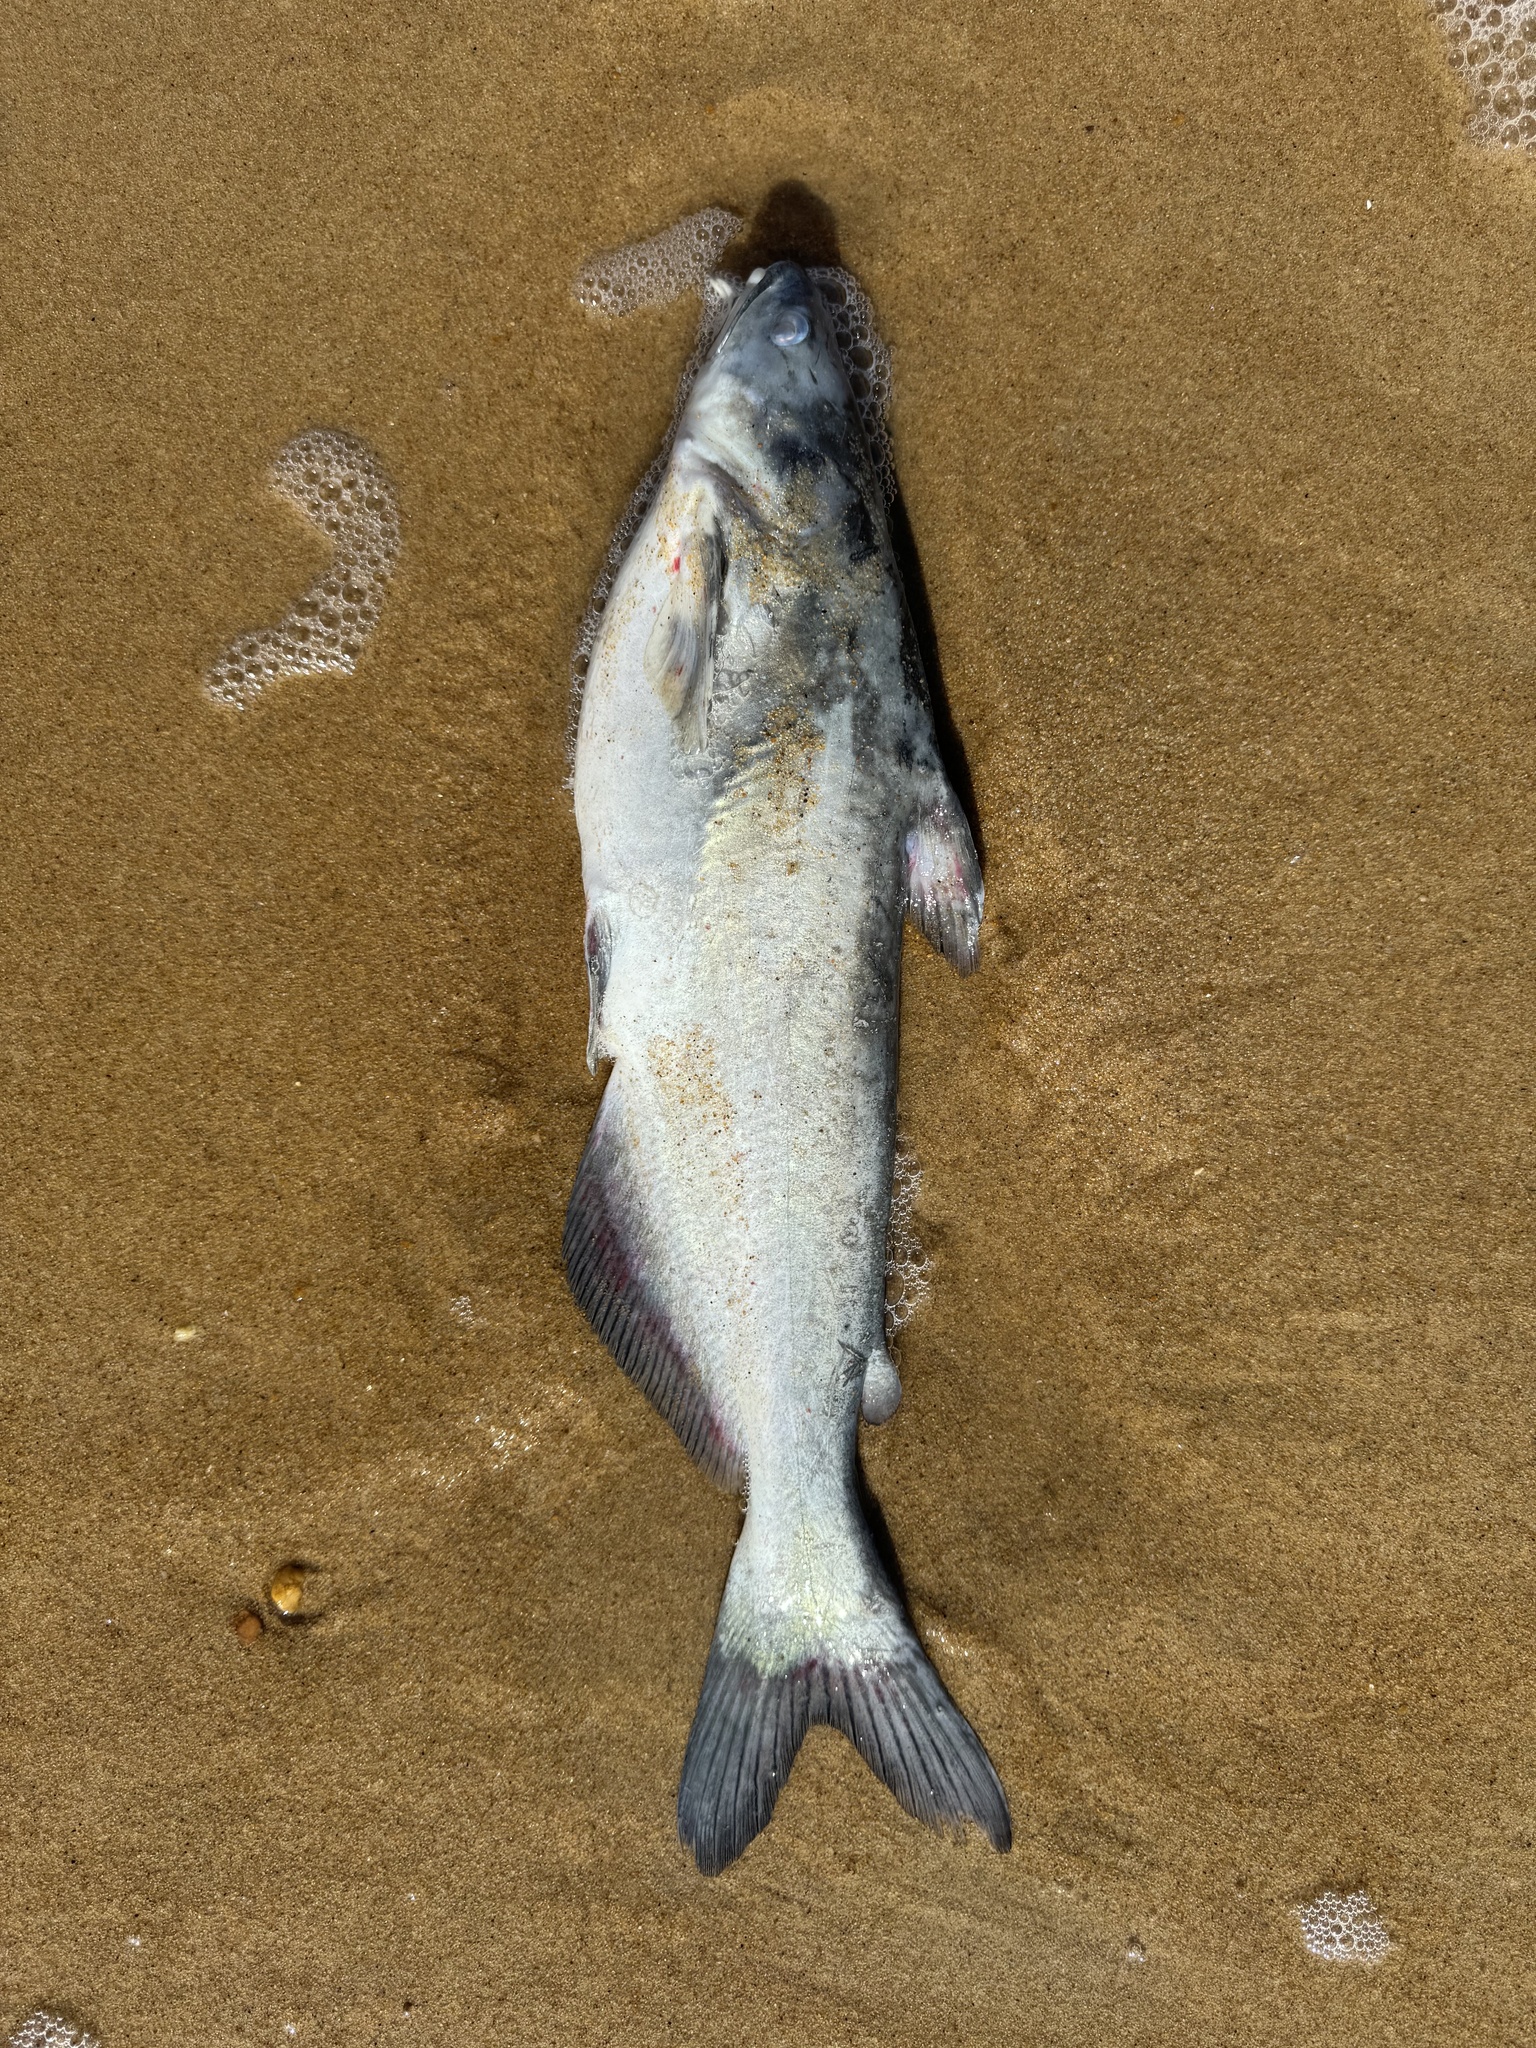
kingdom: Animalia
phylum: Chordata
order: Siluriformes
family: Ictaluridae
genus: Ictalurus
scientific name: Ictalurus furcatus
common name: Blue catfish
